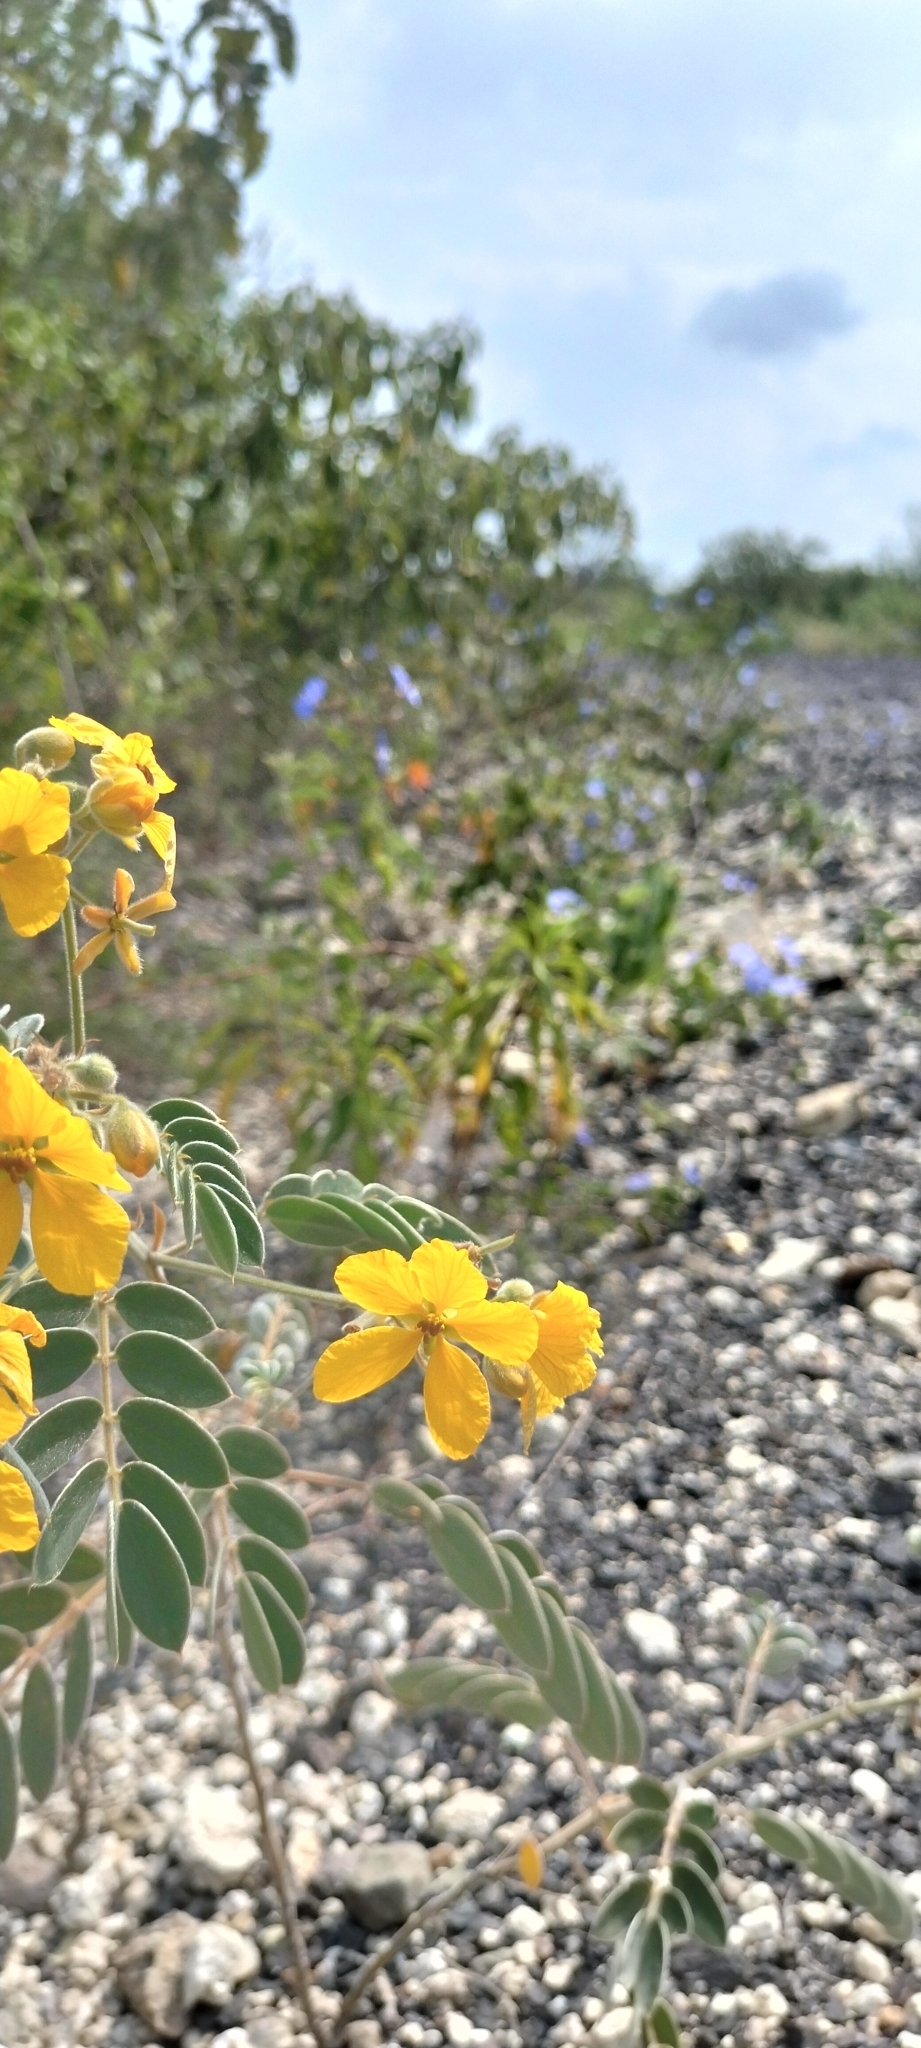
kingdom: Plantae
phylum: Tracheophyta
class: Magnoliopsida
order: Fabales
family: Fabaceae
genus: Senna
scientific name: Senna lindheimeriana
